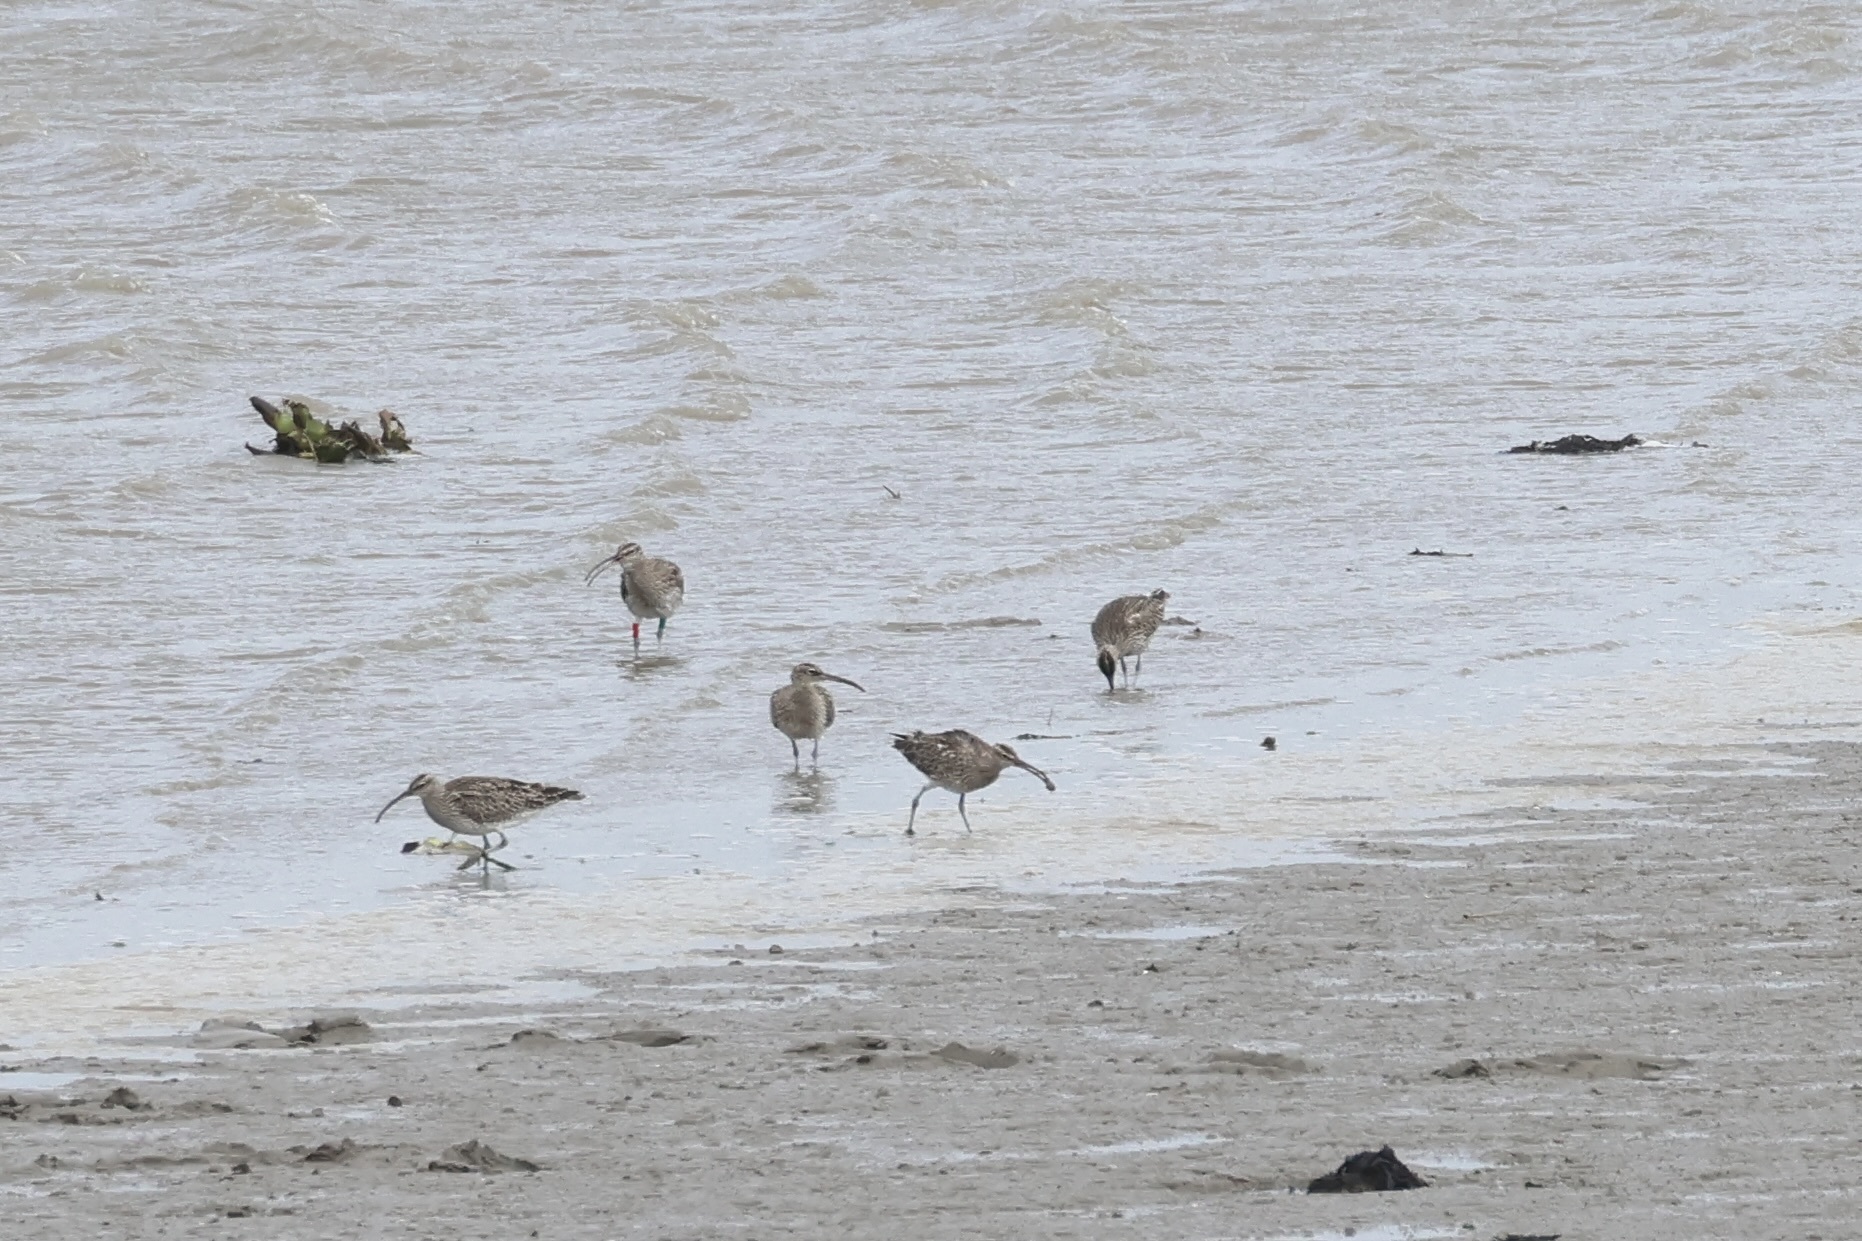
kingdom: Animalia
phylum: Chordata
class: Aves
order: Charadriiformes
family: Scolopacidae
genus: Numenius
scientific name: Numenius phaeopus
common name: Whimbrel
